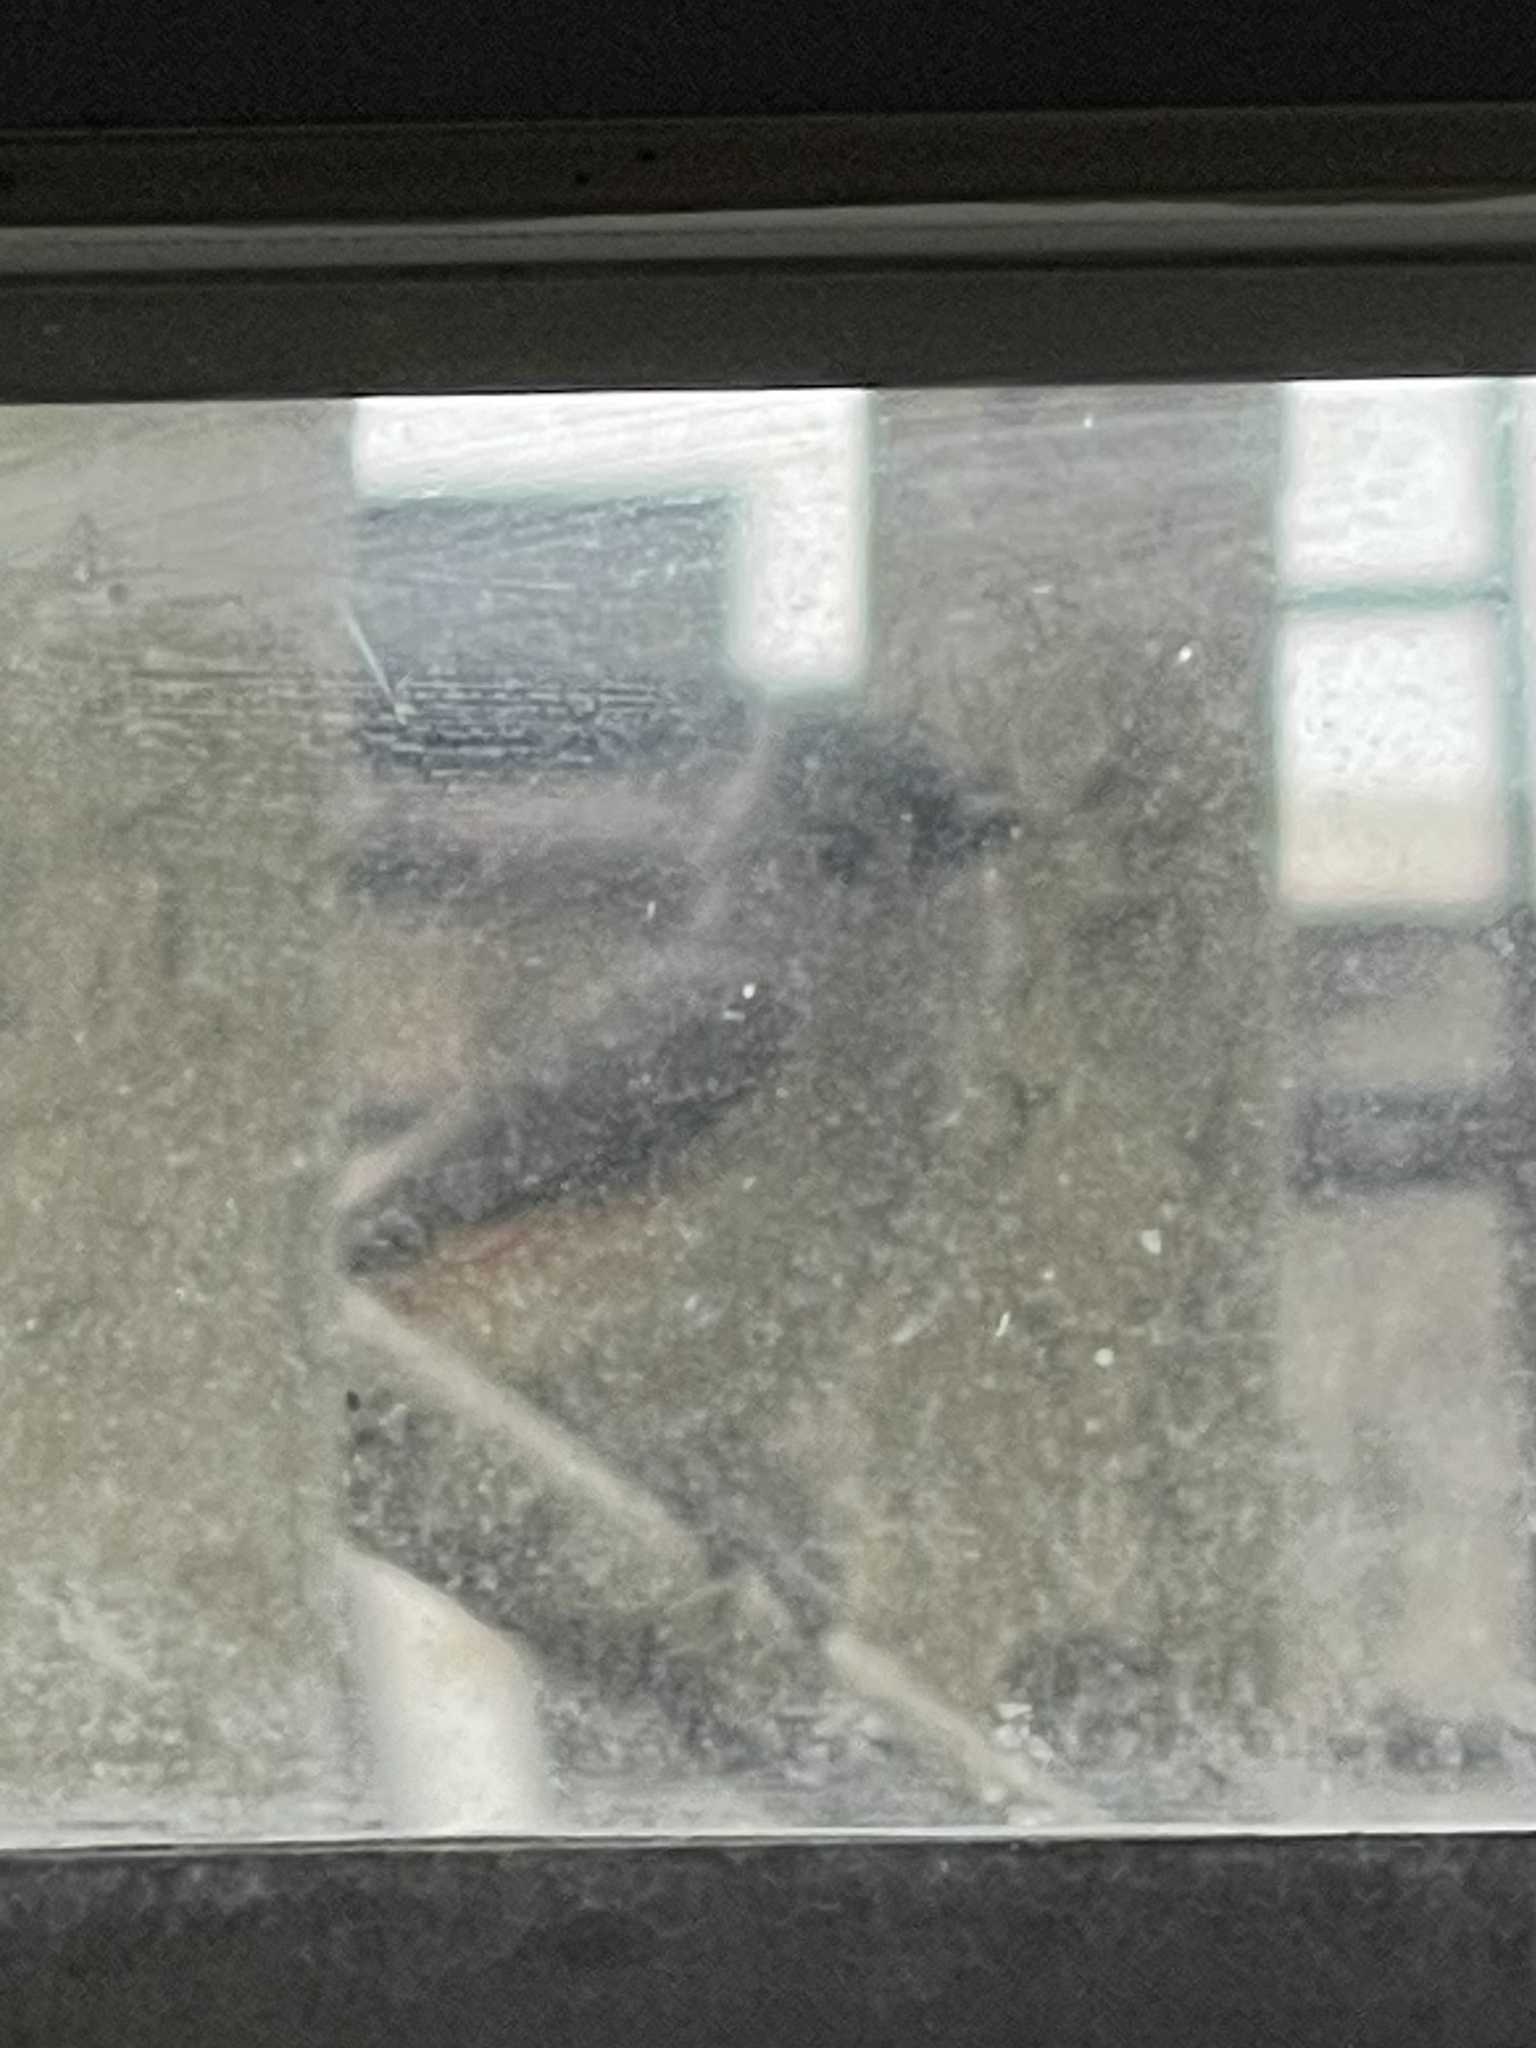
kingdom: Animalia
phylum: Chordata
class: Aves
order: Passeriformes
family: Paridae
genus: Baeolophus
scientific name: Baeolophus bicolor
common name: Tufted titmouse
